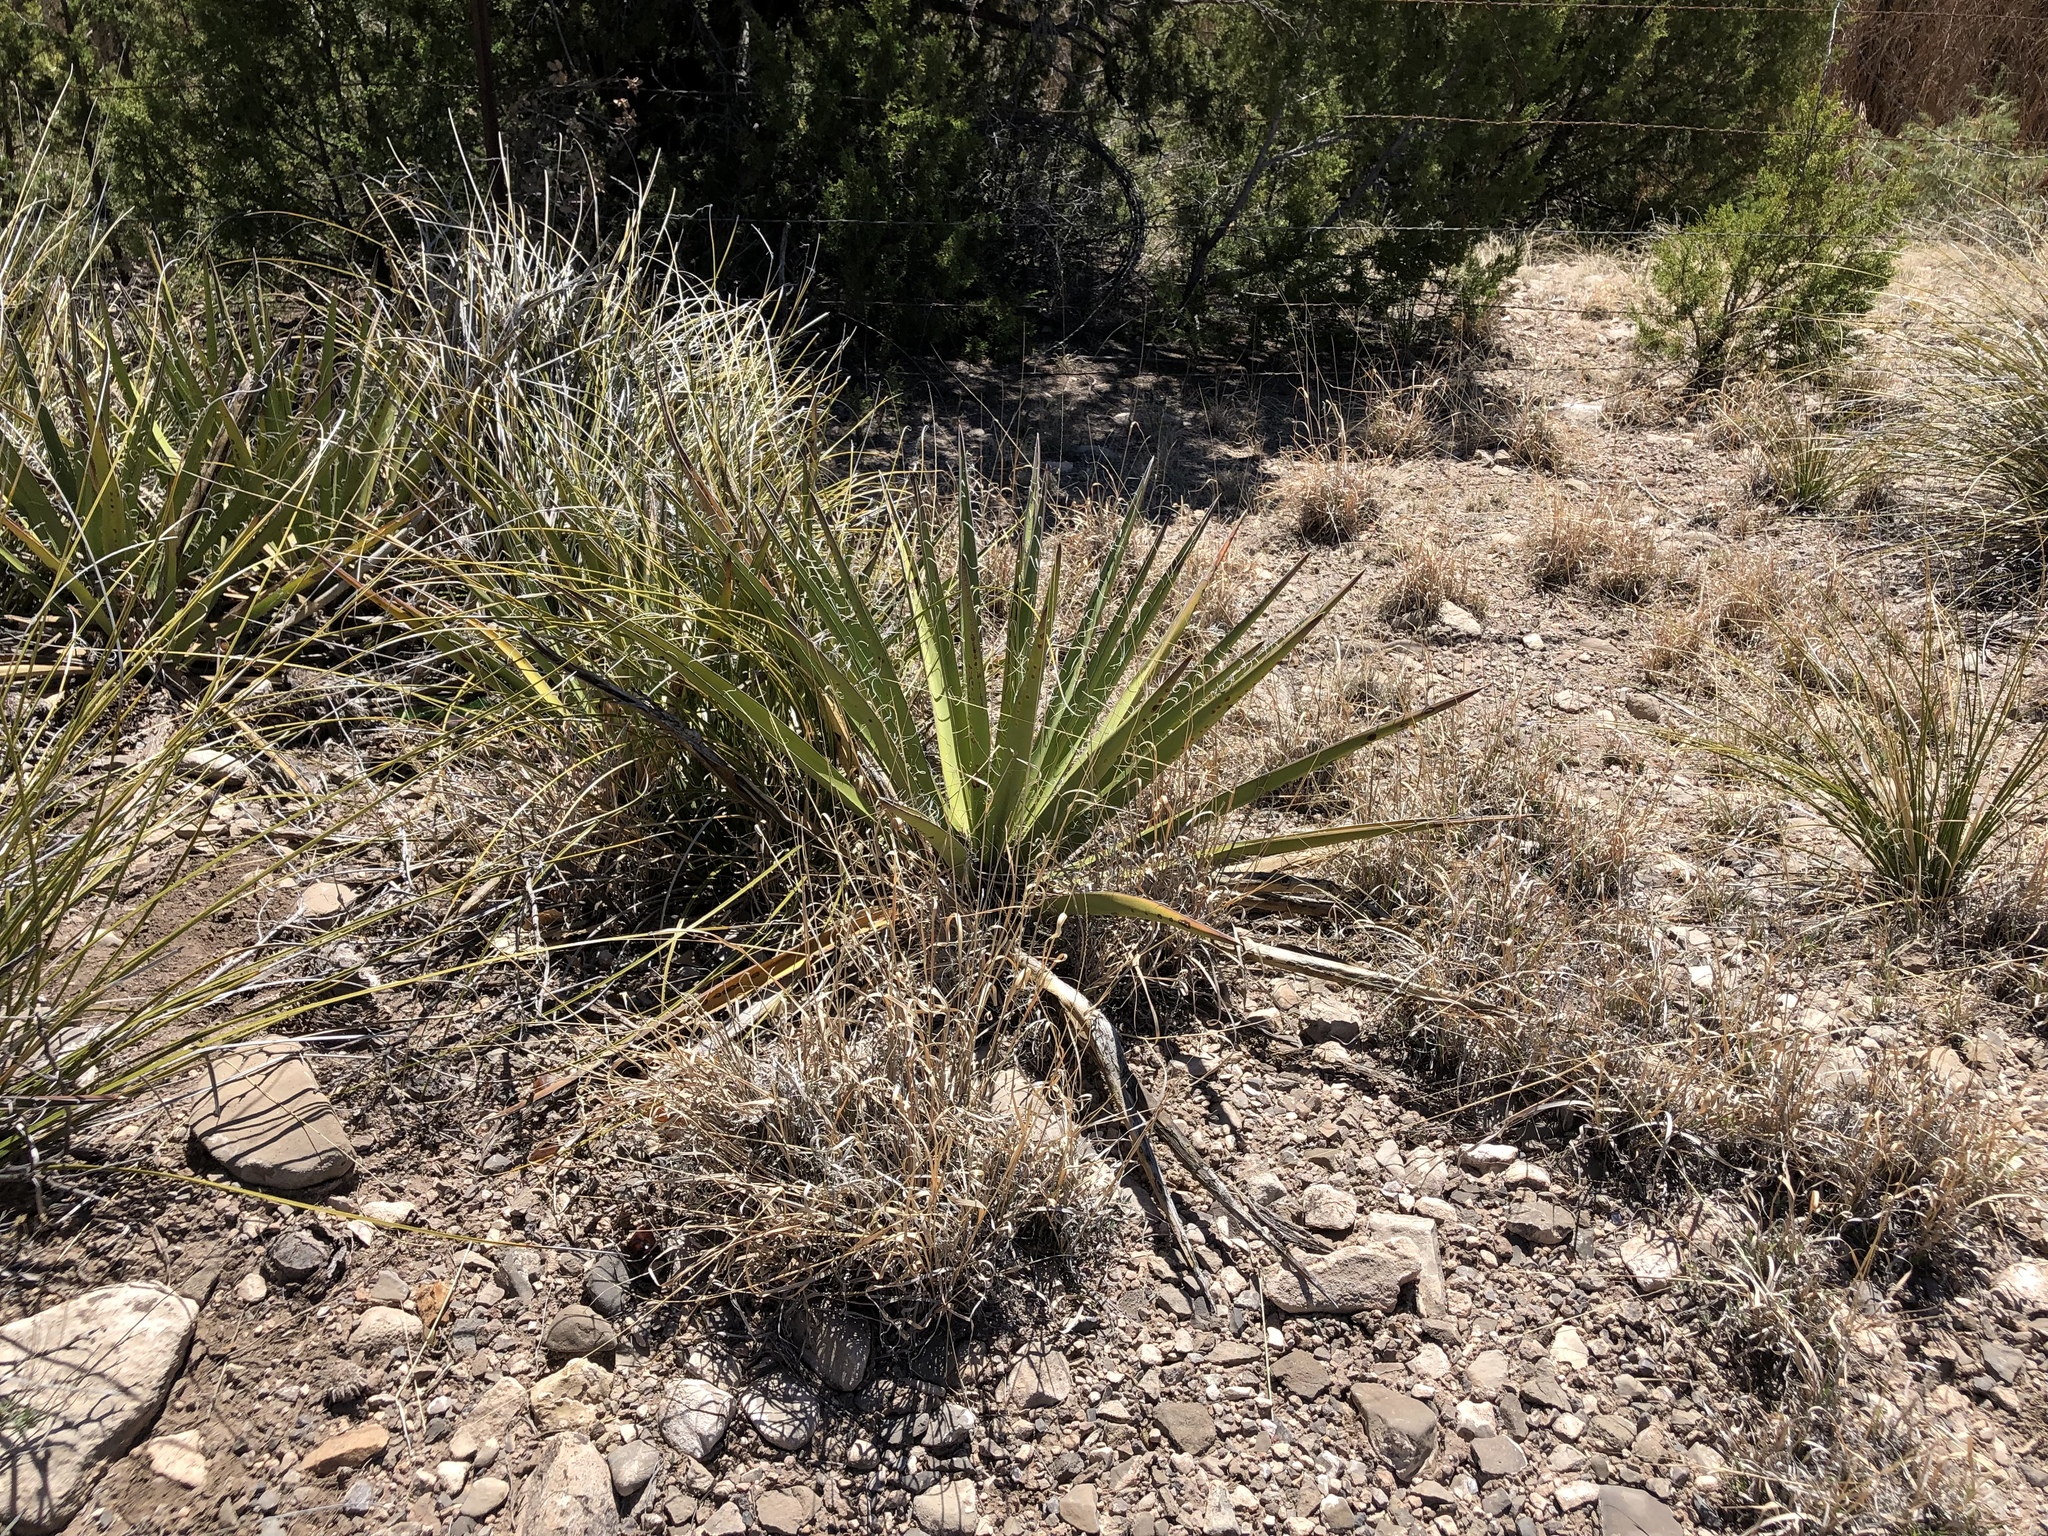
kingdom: Plantae
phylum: Tracheophyta
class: Liliopsida
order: Asparagales
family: Asparagaceae
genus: Yucca
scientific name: Yucca baccata
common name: Banana yucca
